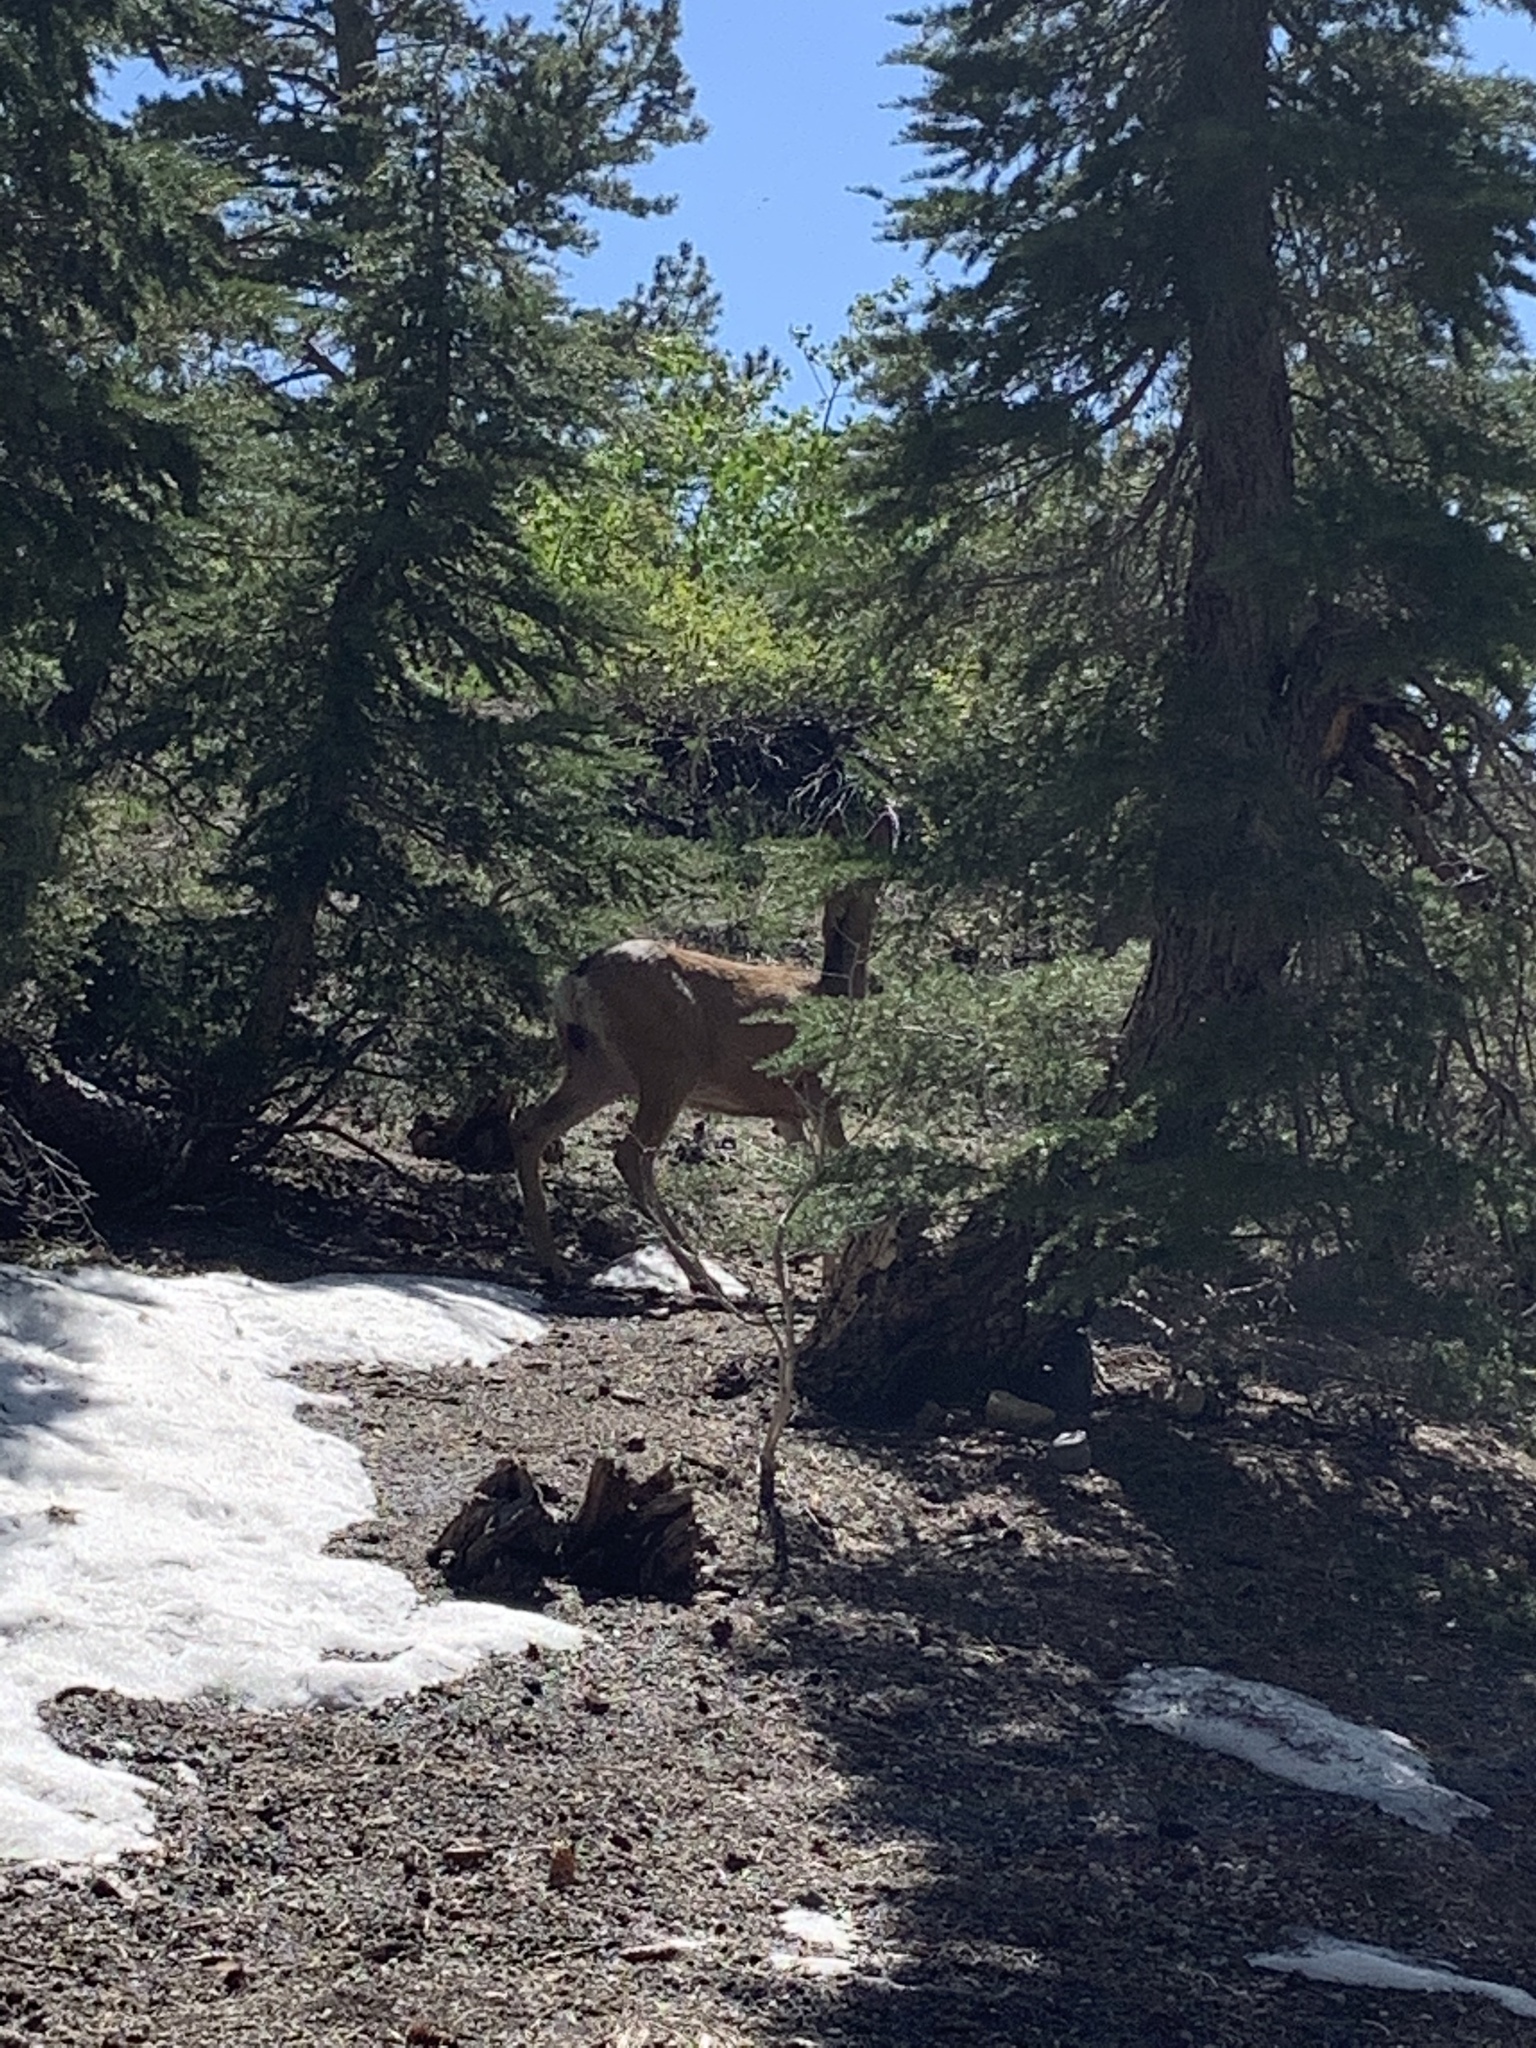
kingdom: Animalia
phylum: Chordata
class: Mammalia
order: Artiodactyla
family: Cervidae
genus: Odocoileus
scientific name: Odocoileus hemionus
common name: Mule deer
